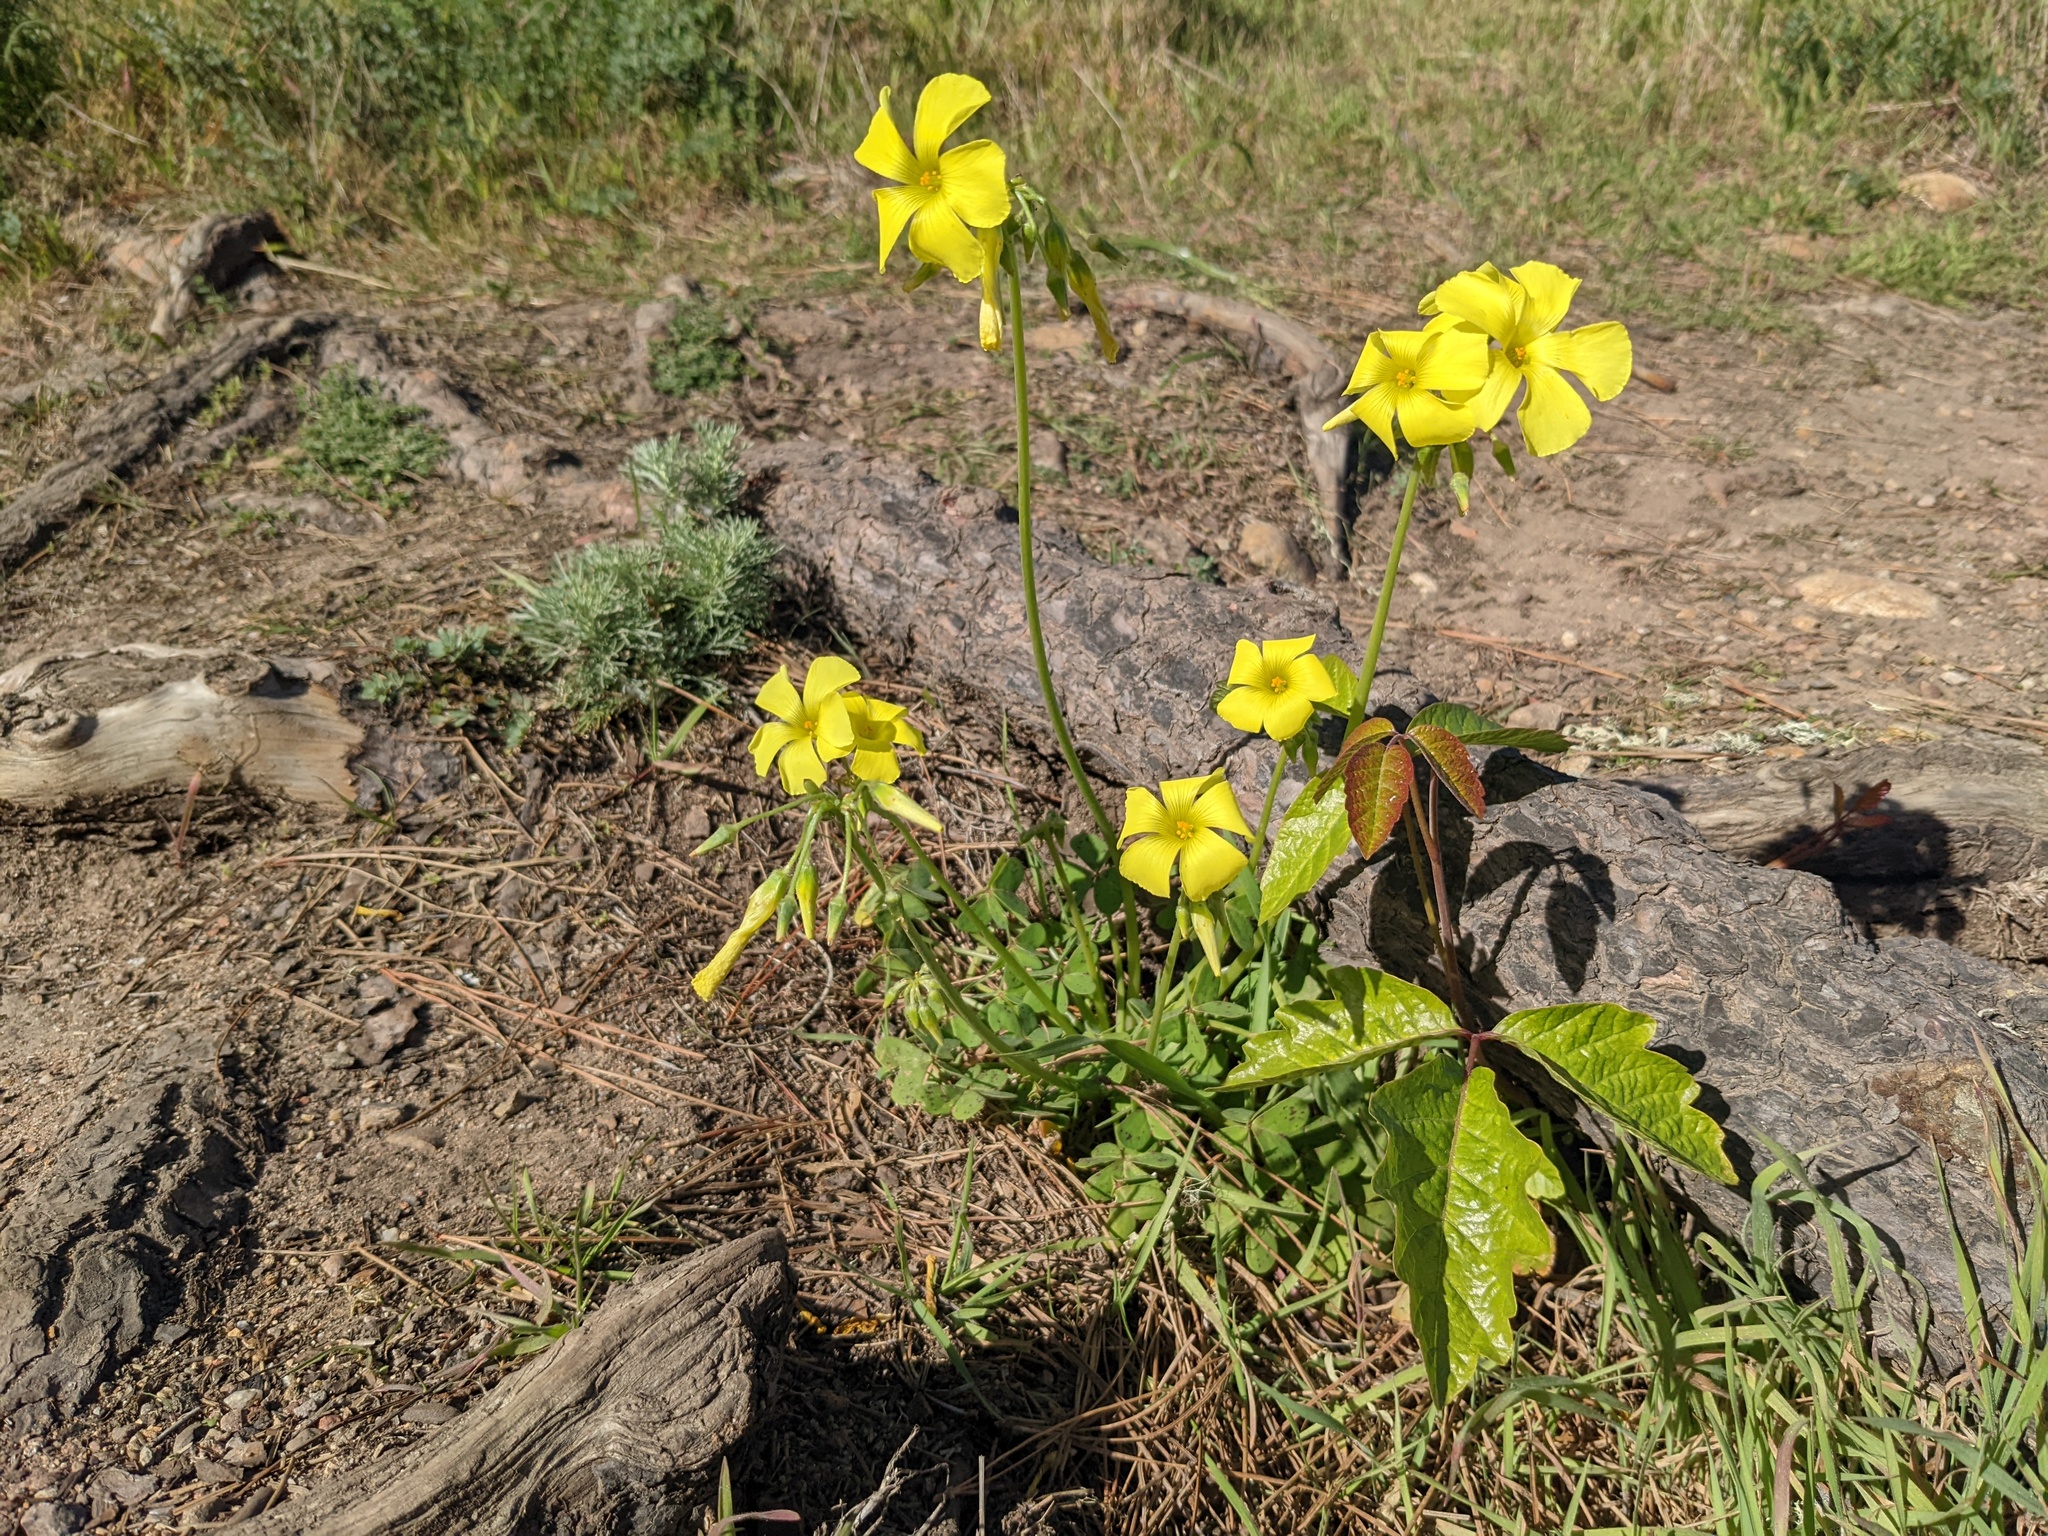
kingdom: Plantae
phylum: Tracheophyta
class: Magnoliopsida
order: Oxalidales
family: Oxalidaceae
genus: Oxalis
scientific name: Oxalis pes-caprae
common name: Bermuda-buttercup
